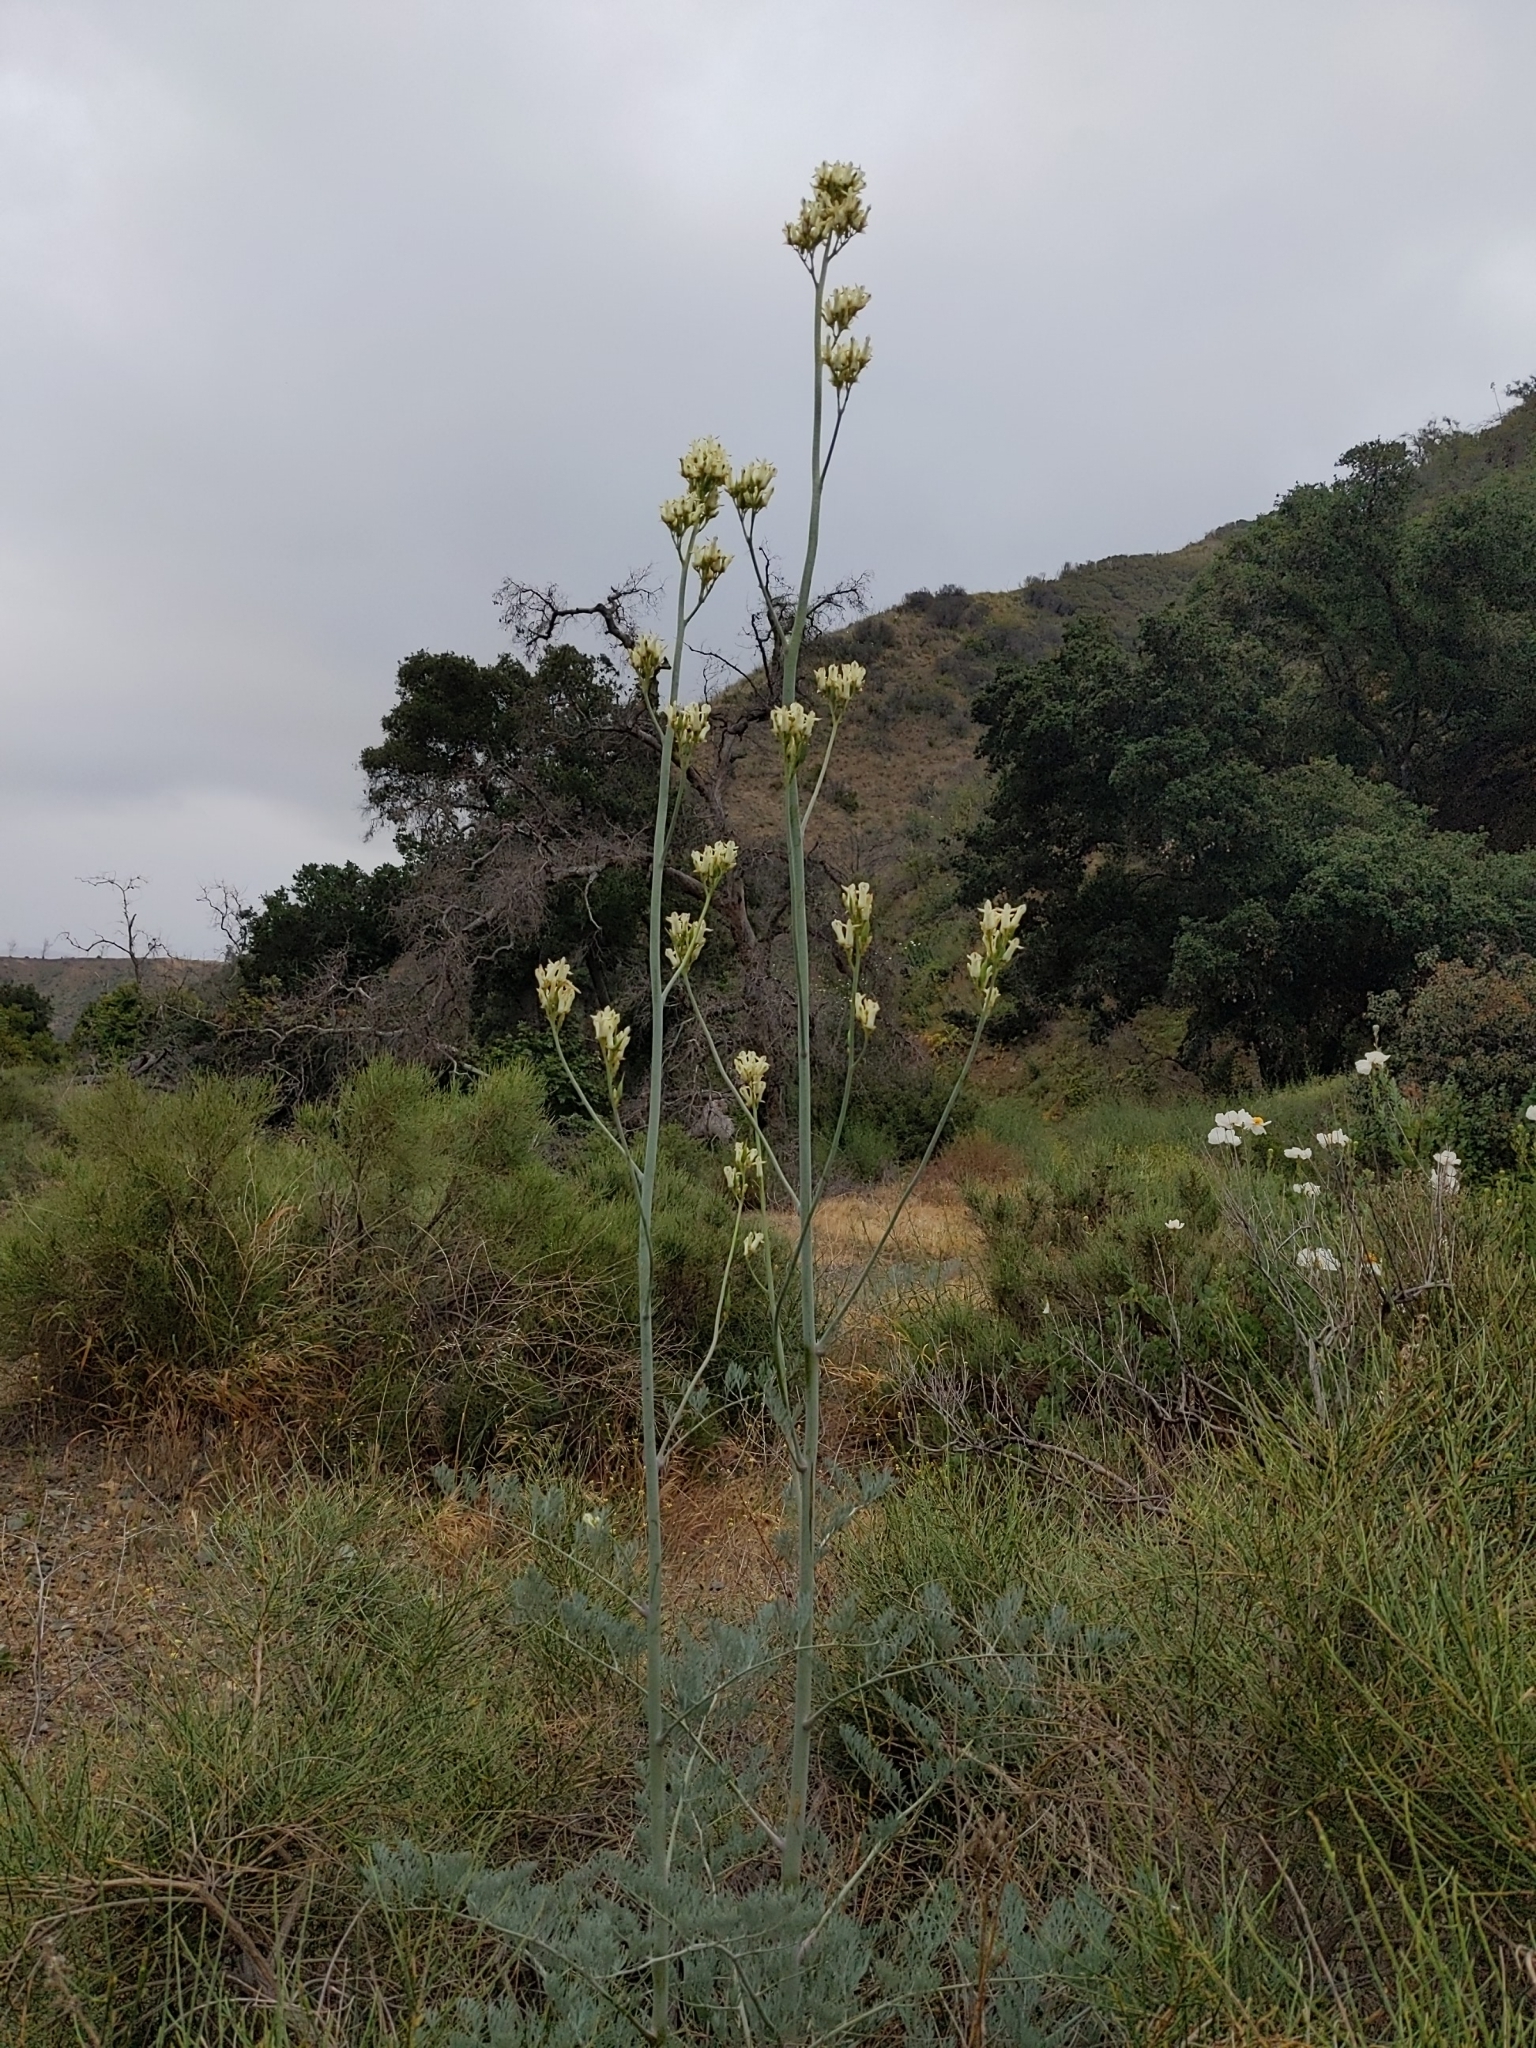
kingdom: Plantae
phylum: Tracheophyta
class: Magnoliopsida
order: Ranunculales
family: Papaveraceae
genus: Ehrendorferia
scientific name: Ehrendorferia ochroleuca
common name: White eardrops
